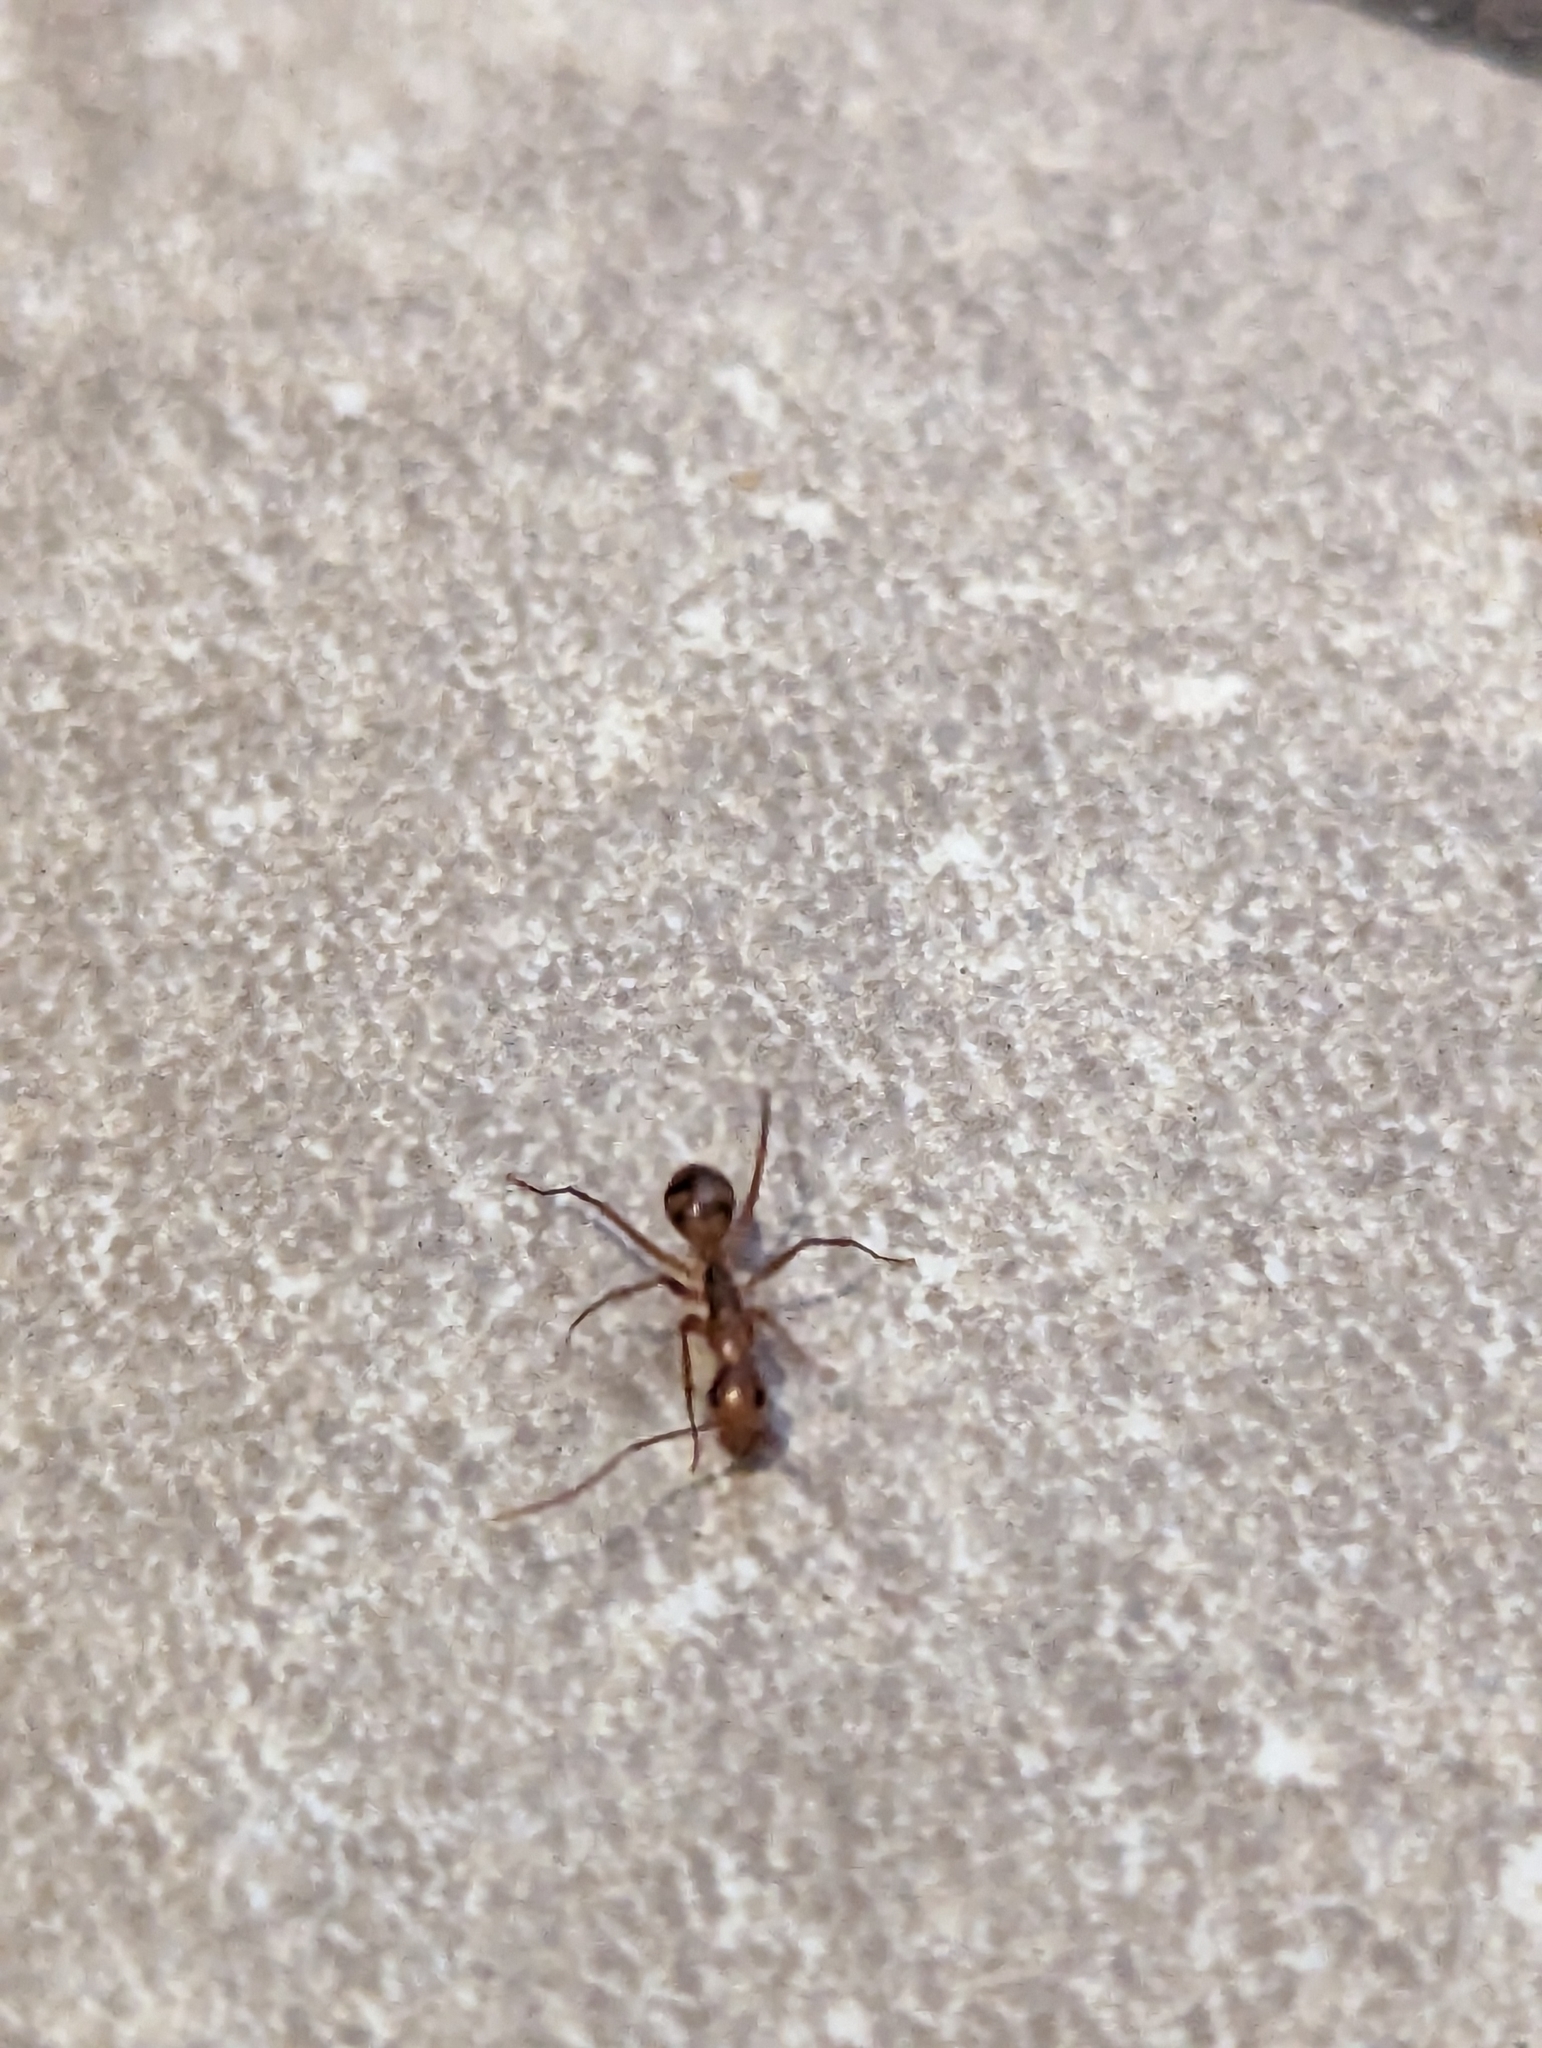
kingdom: Animalia
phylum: Arthropoda
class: Insecta
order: Hymenoptera
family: Formicidae
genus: Camponotus
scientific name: Camponotus
